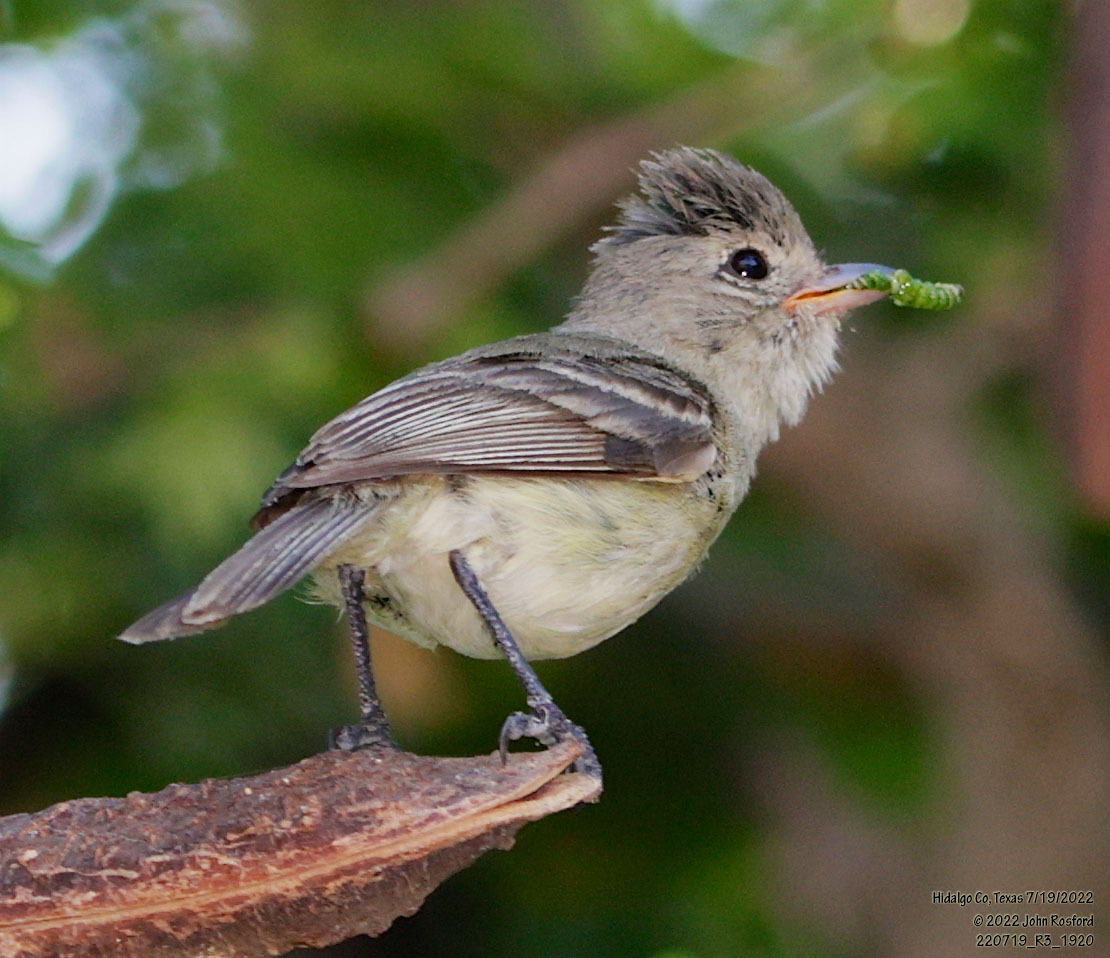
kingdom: Animalia
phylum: Chordata
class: Aves
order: Passeriformes
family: Tyrannidae
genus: Camptostoma
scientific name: Camptostoma imberbe
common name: Northern beardless-tyrannulet
